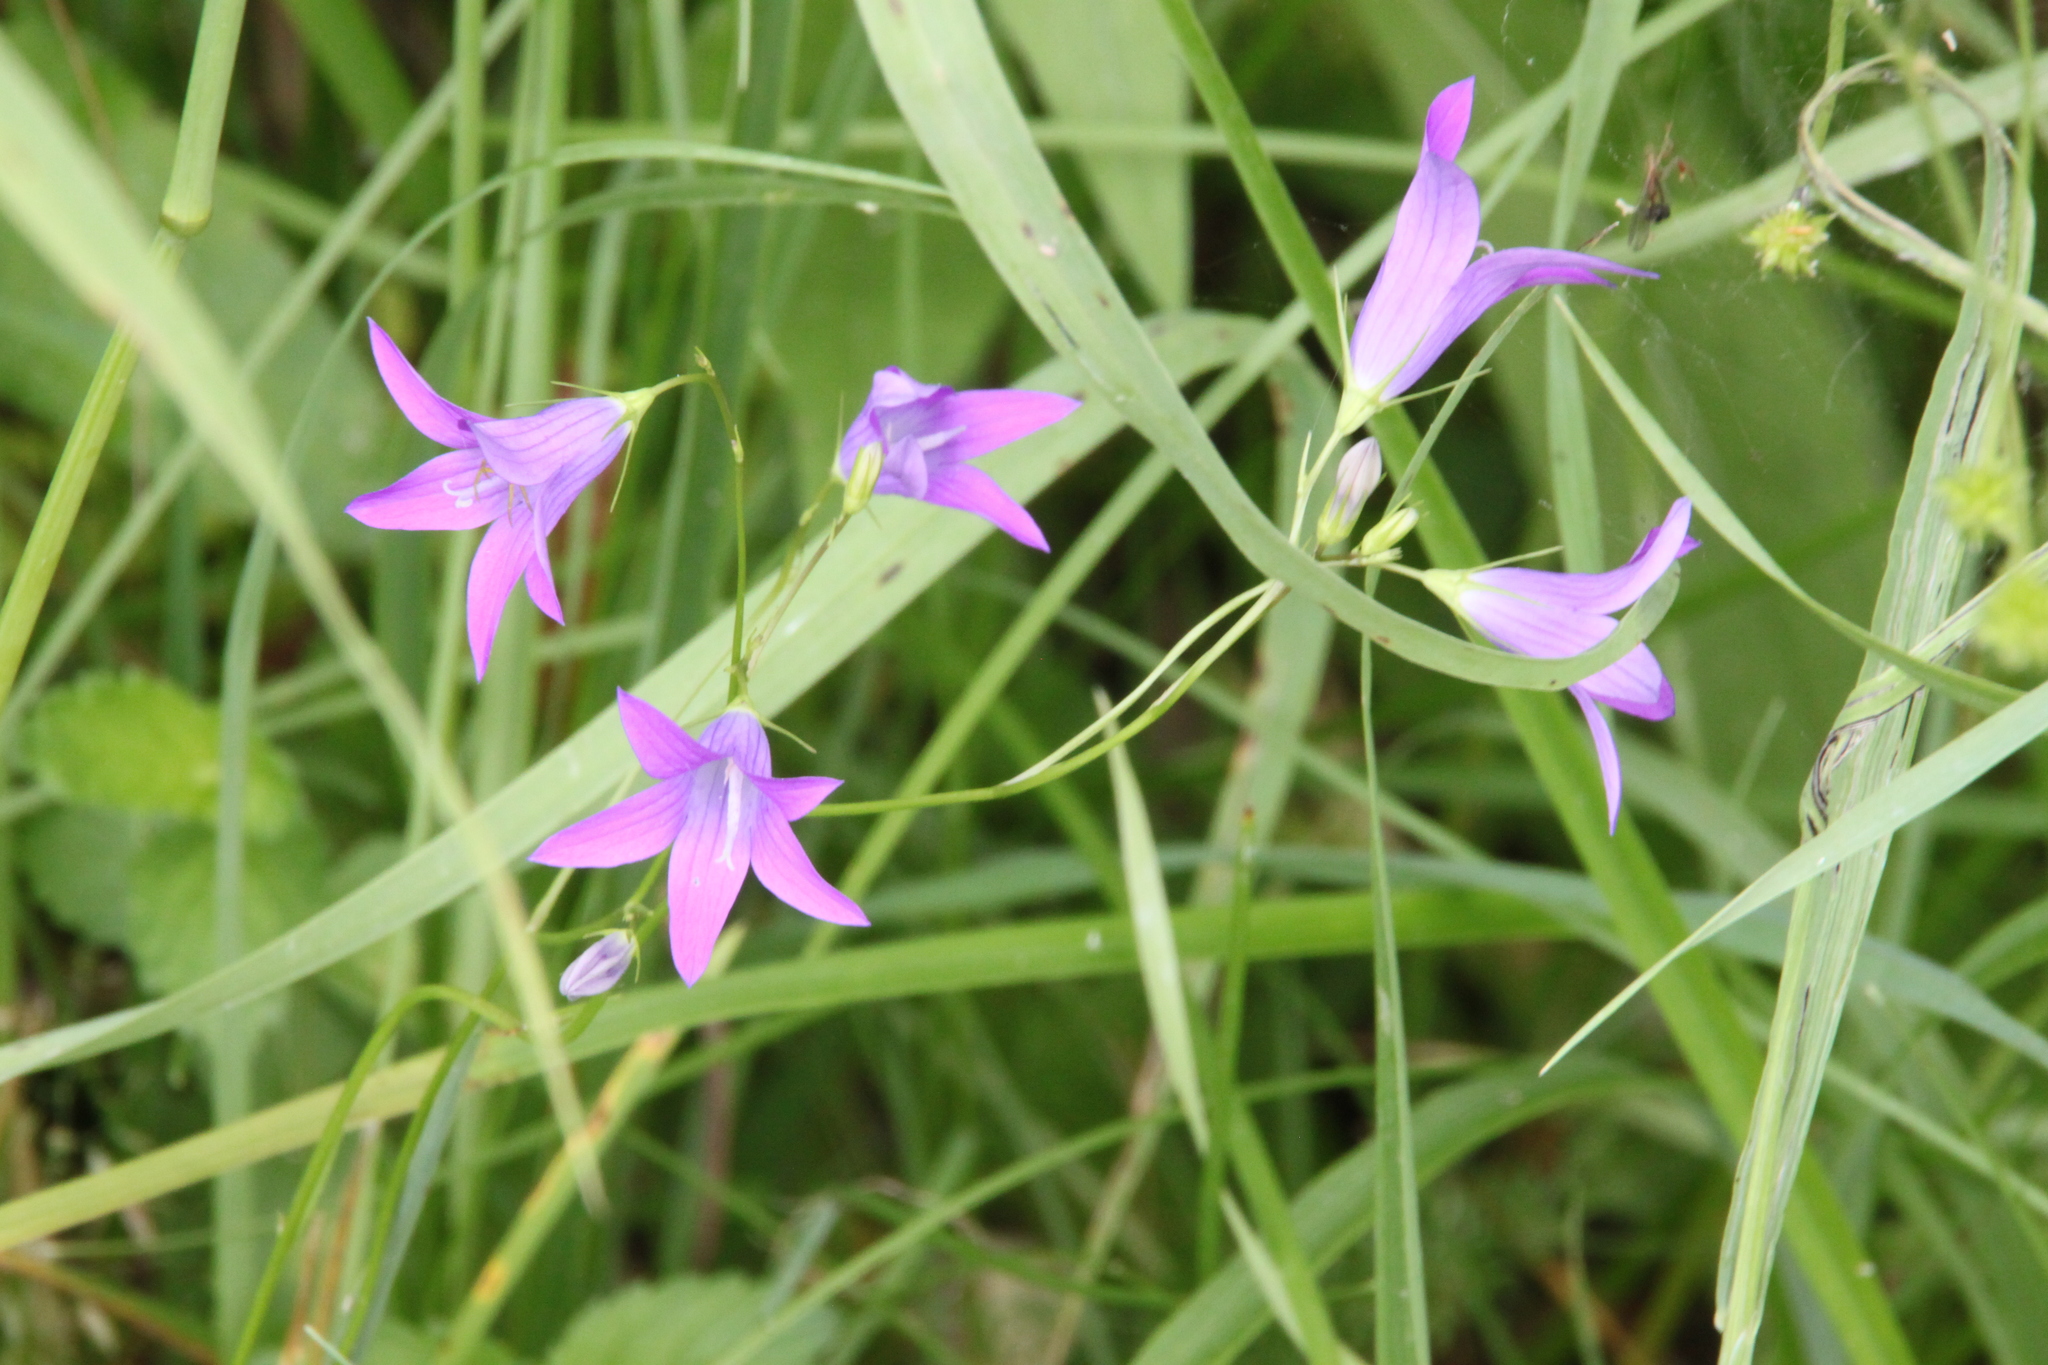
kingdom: Plantae
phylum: Tracheophyta
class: Magnoliopsida
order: Asterales
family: Campanulaceae
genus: Campanula
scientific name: Campanula patula
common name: Spreading bellflower
